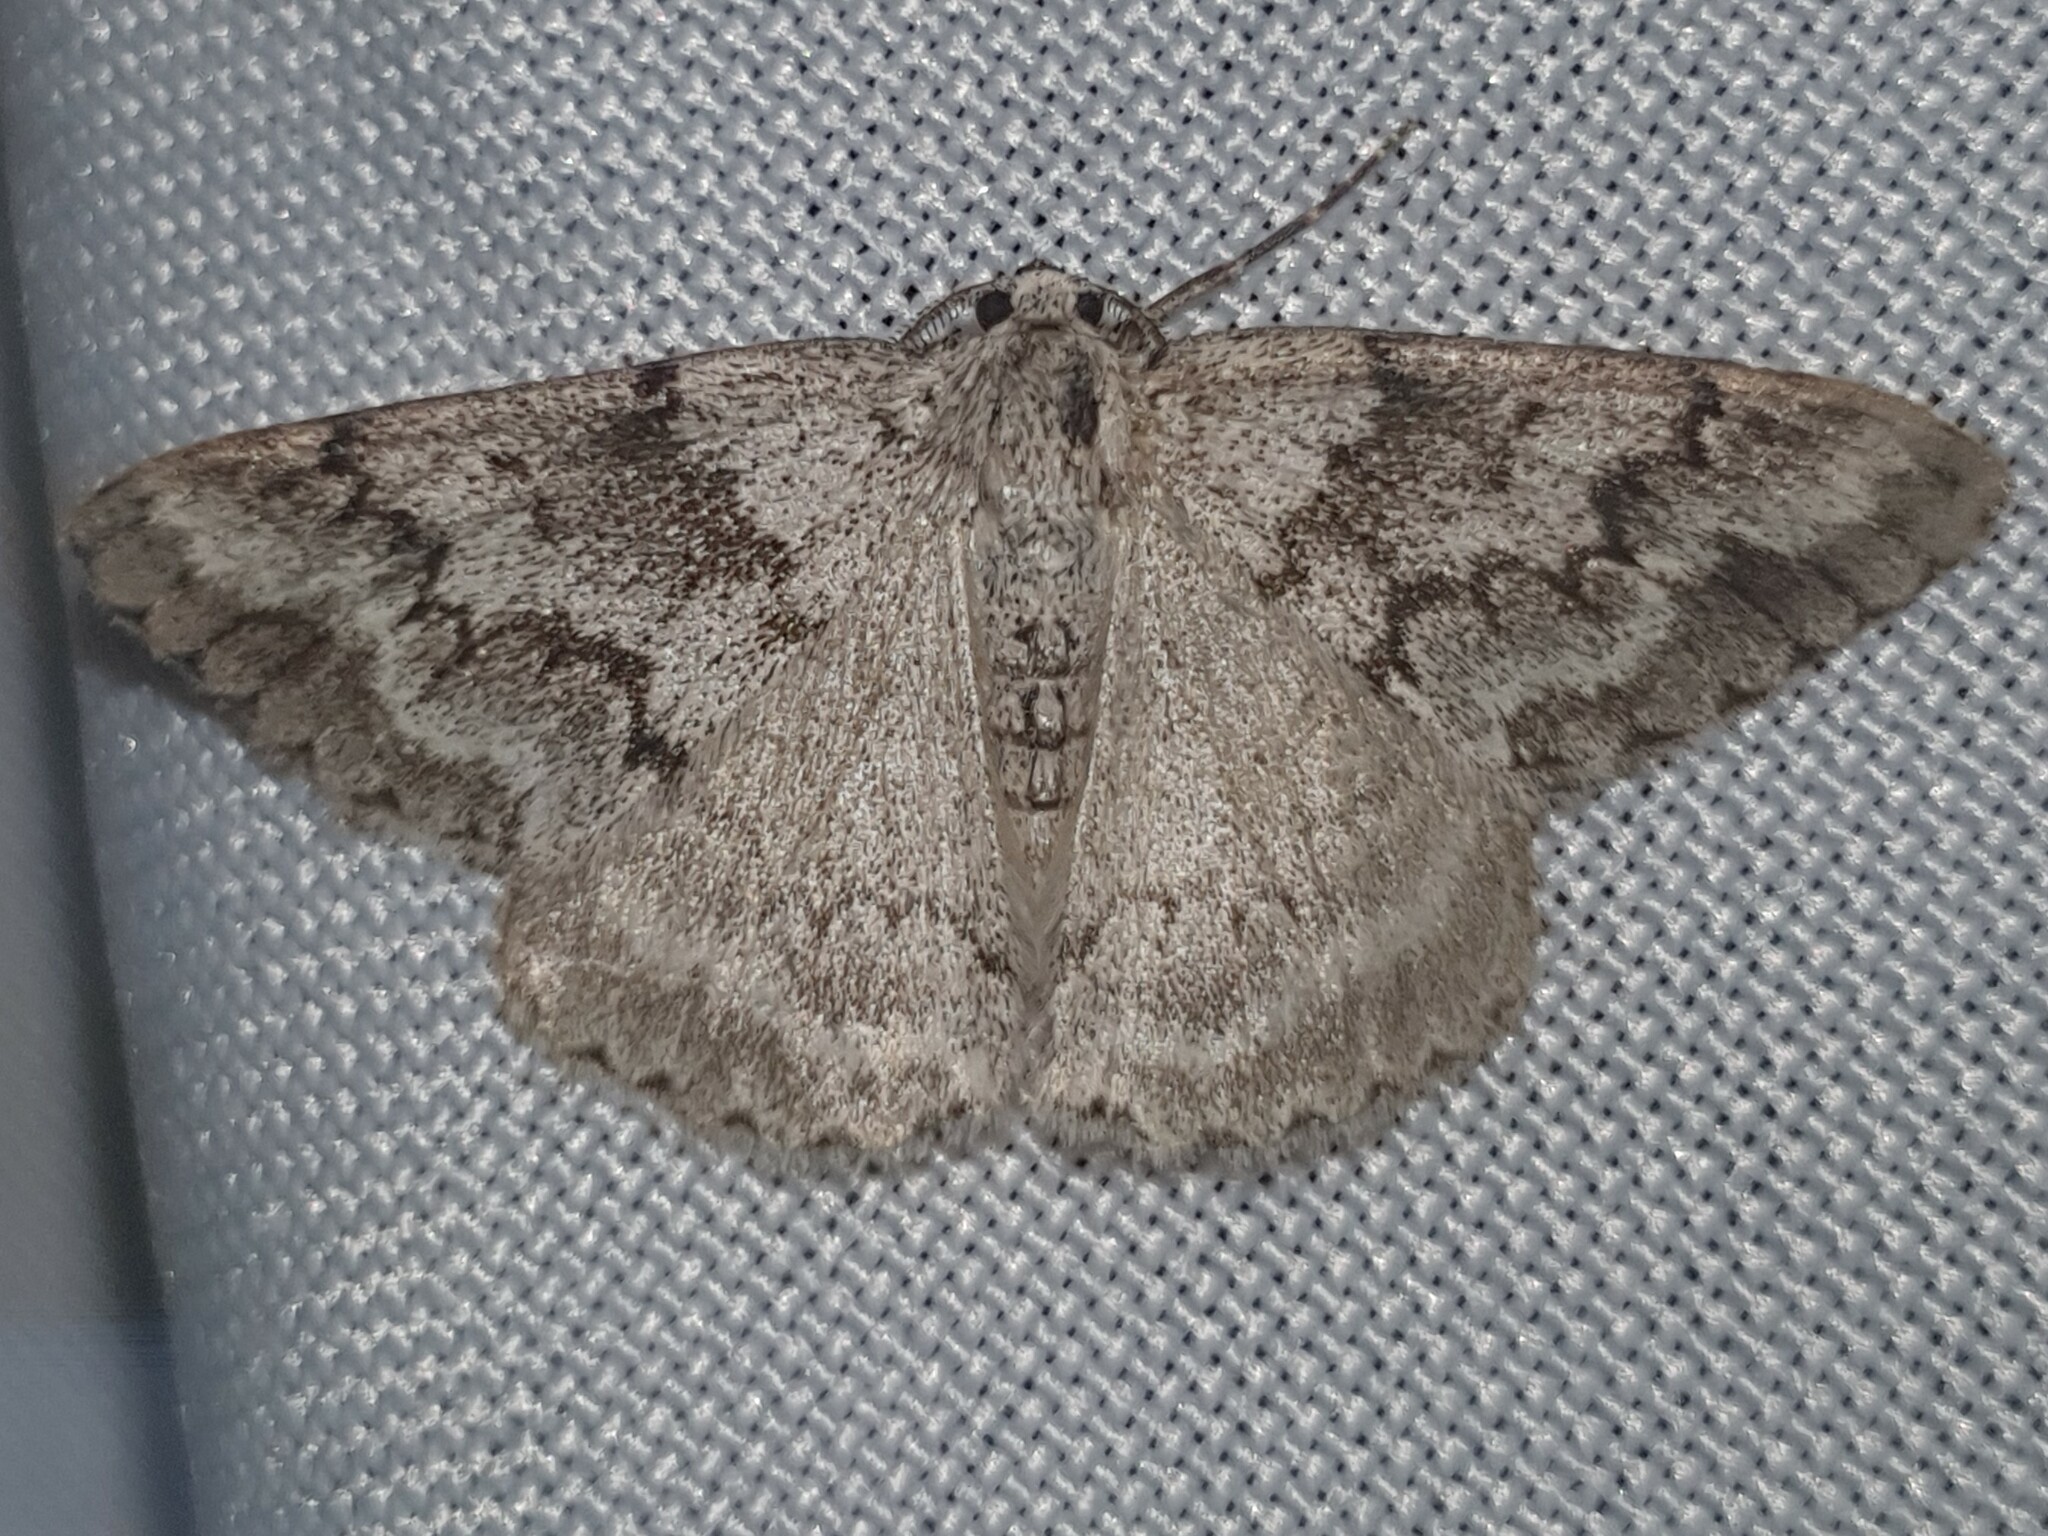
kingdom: Animalia
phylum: Arthropoda
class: Insecta
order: Lepidoptera
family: Geometridae
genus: Pseudoterpna
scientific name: Pseudoterpna coronillaria
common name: Jersey emerald
